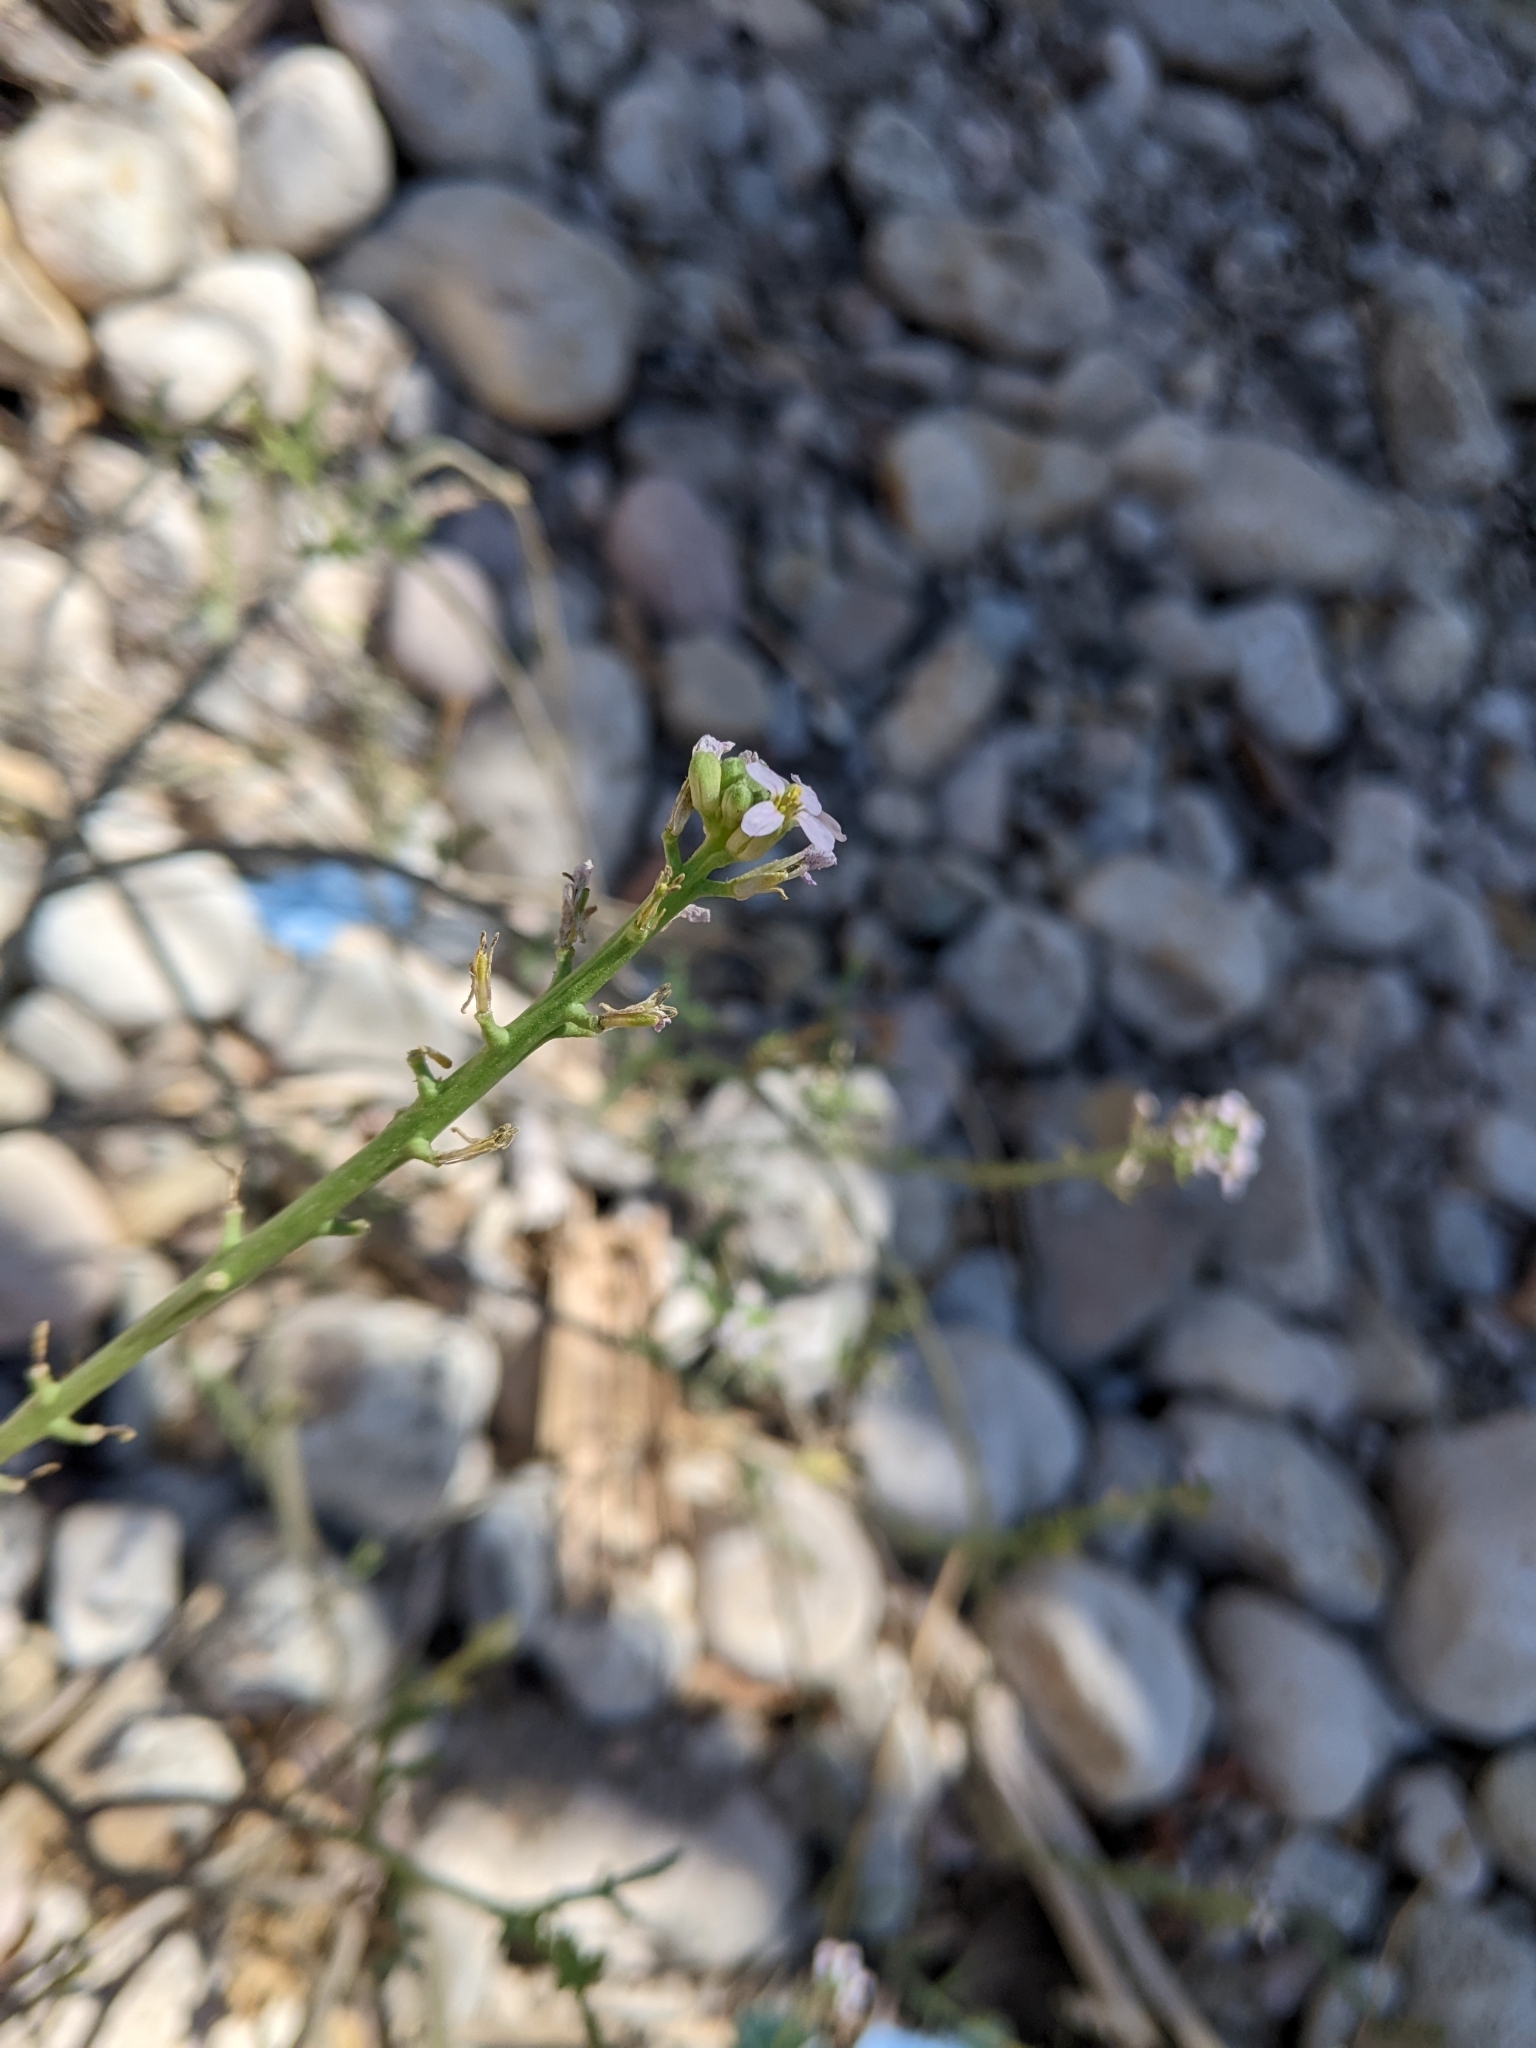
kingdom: Plantae
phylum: Tracheophyta
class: Magnoliopsida
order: Brassicales
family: Brassicaceae
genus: Cakile
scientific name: Cakile maritima
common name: Sea rocket
